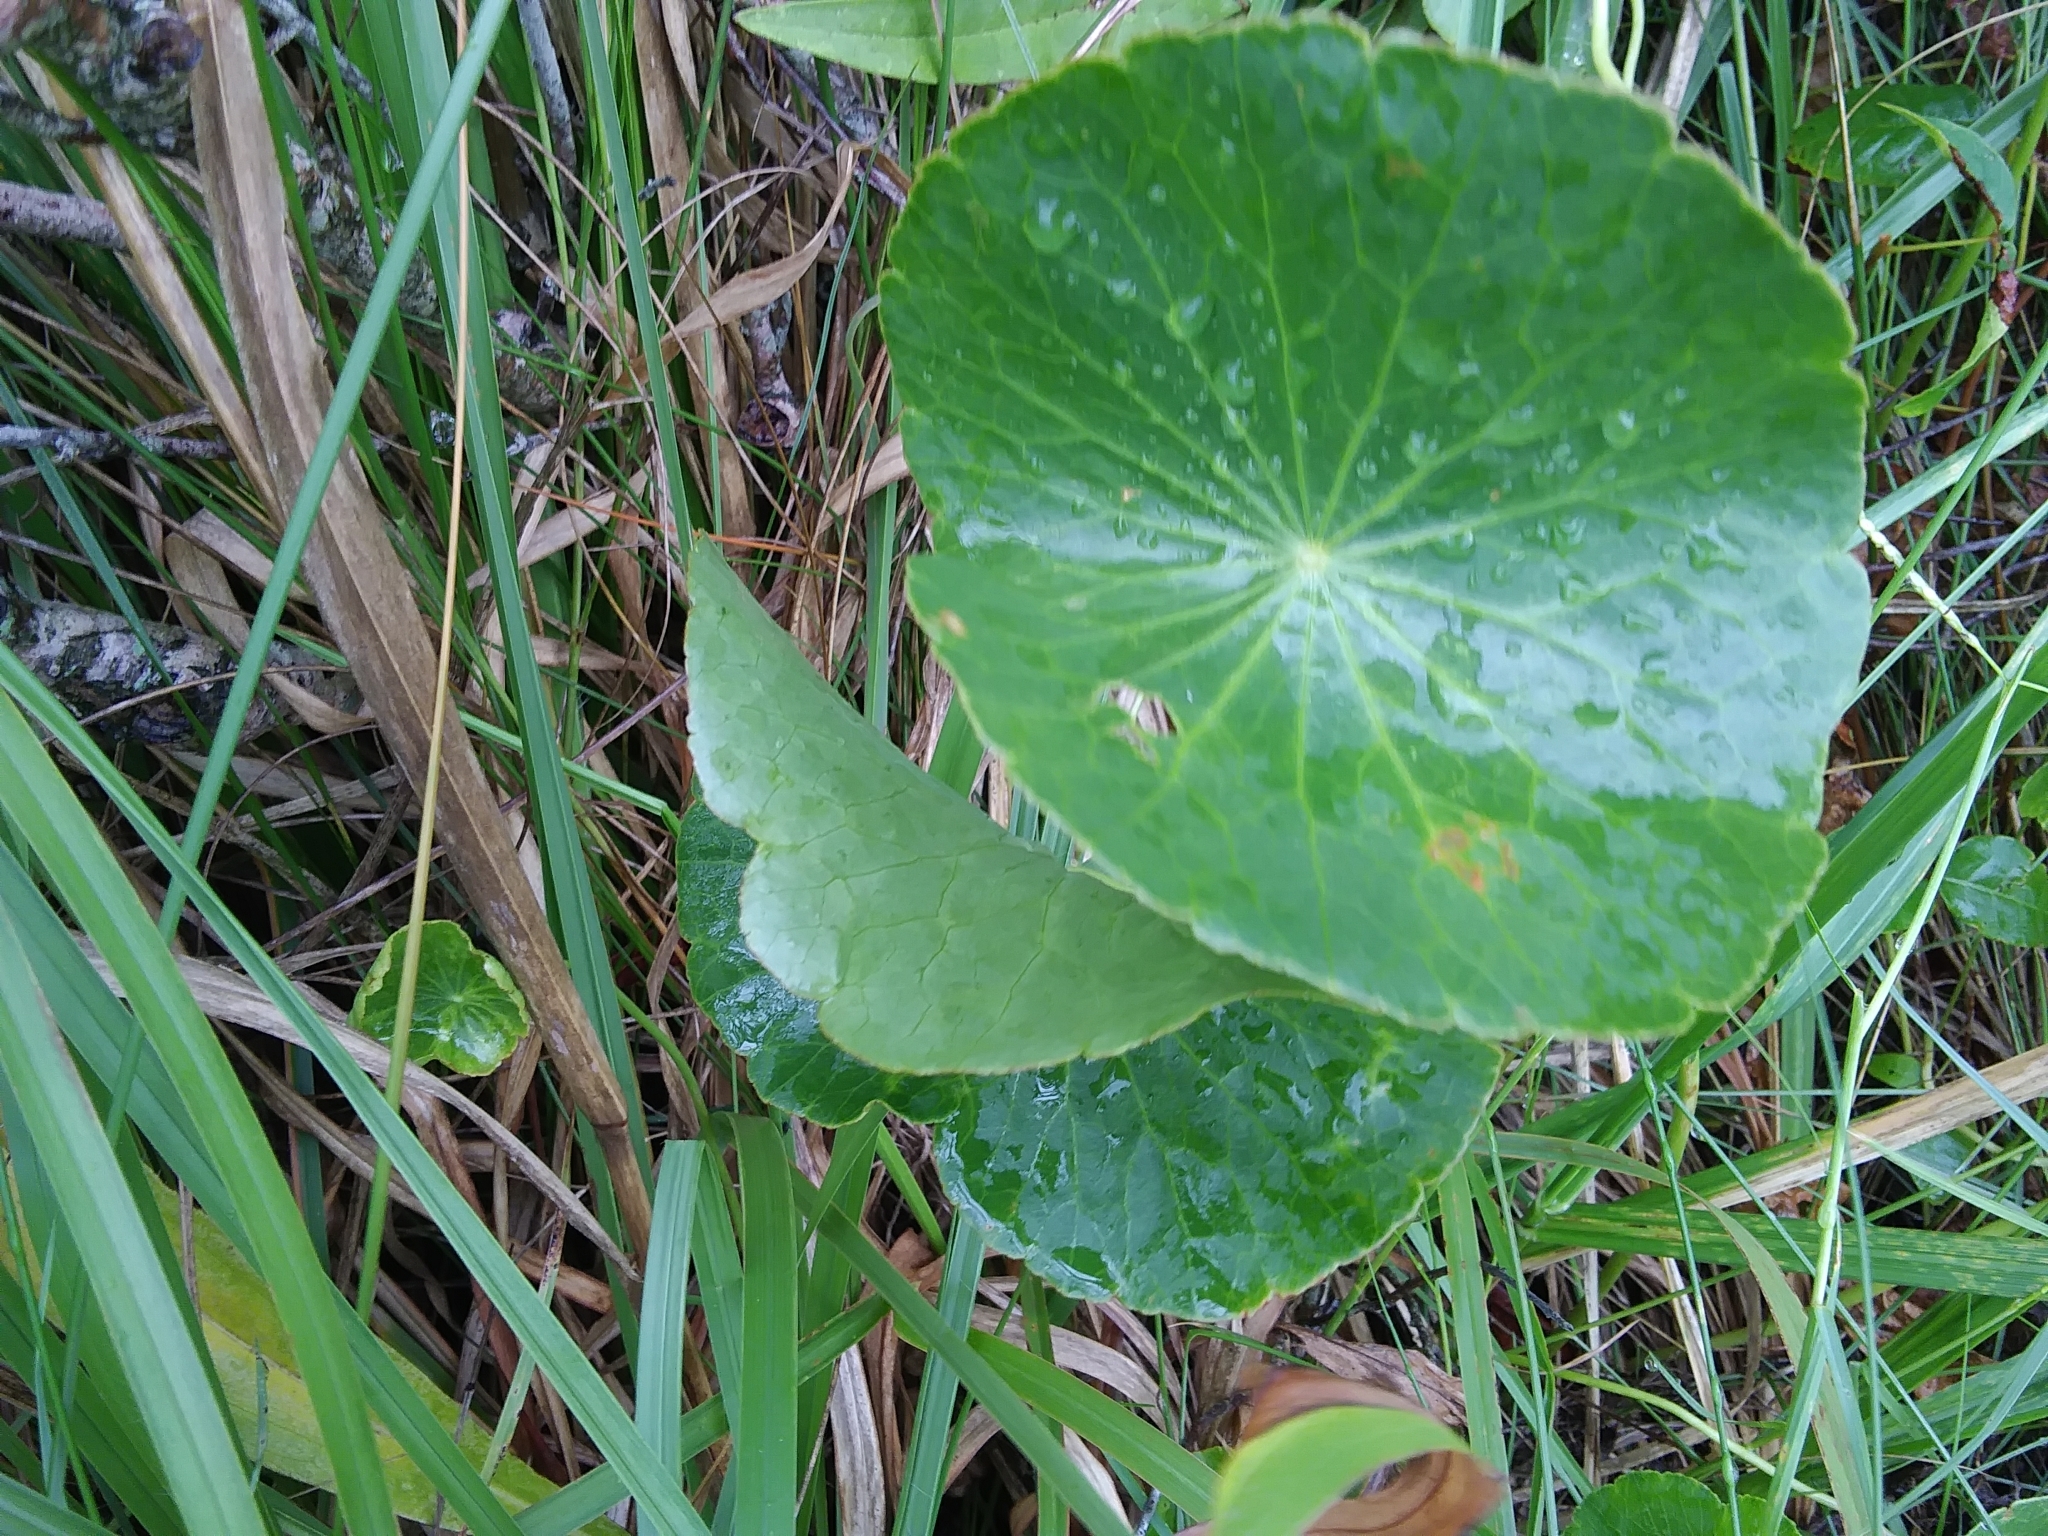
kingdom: Plantae
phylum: Tracheophyta
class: Magnoliopsida
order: Apiales
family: Araliaceae
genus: Hydrocotyle
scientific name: Hydrocotyle bonariensis
